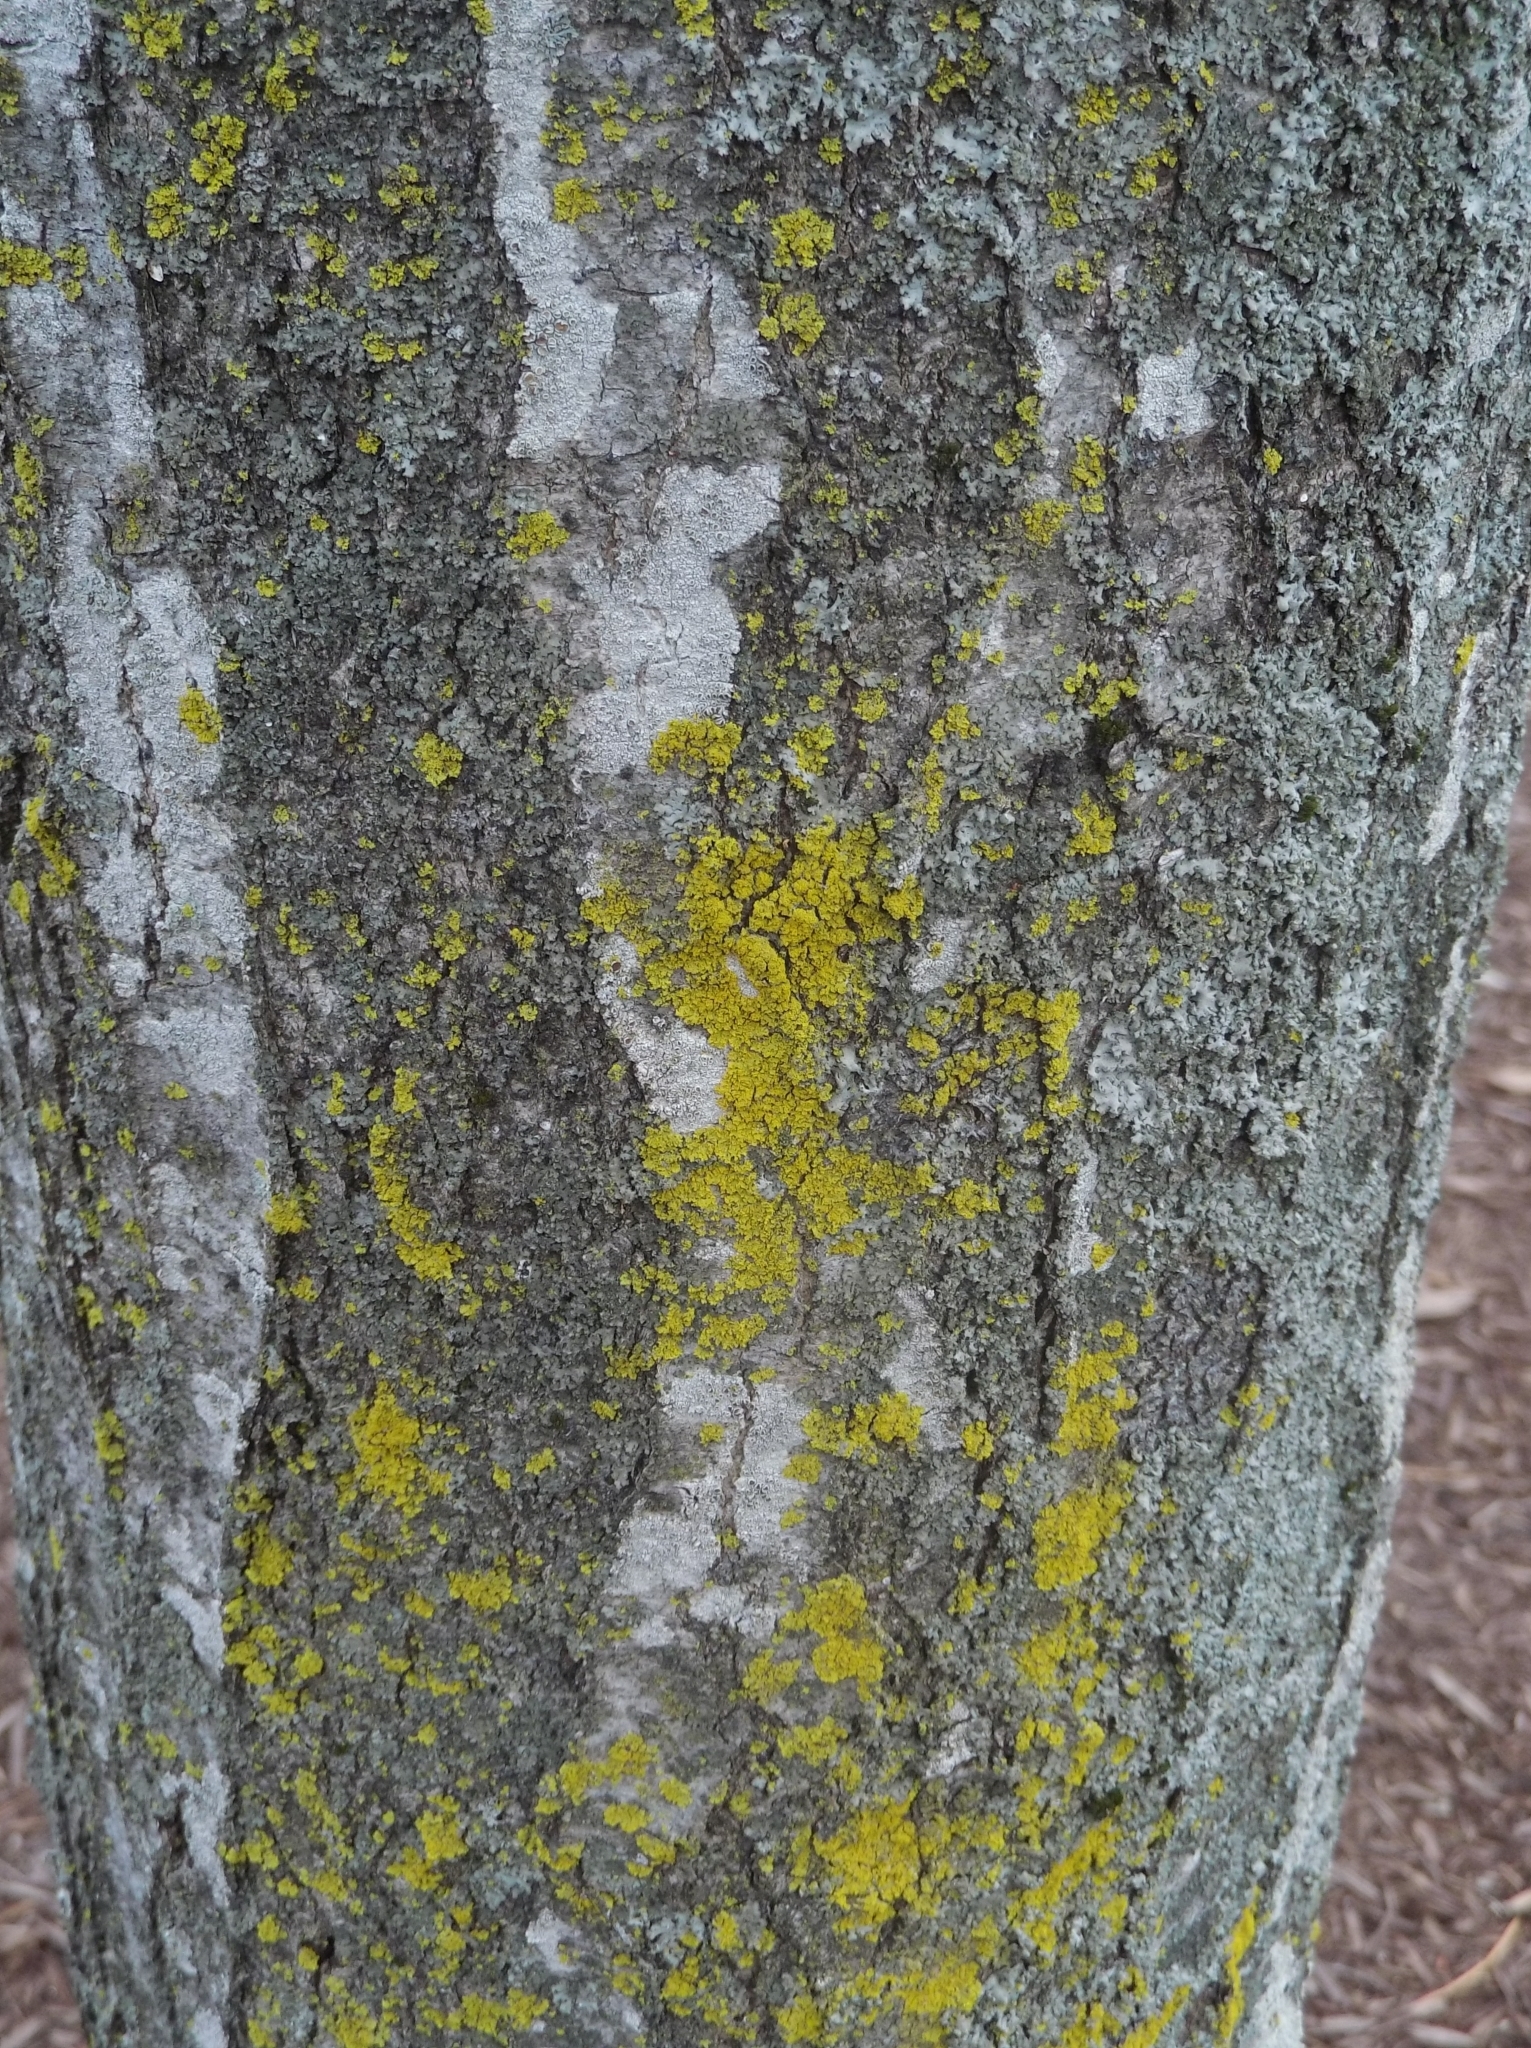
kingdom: Fungi
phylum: Ascomycota
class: Candelariomycetes
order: Candelariales
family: Candelariaceae
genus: Candelaria
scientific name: Candelaria concolor
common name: Candleflame lichen
